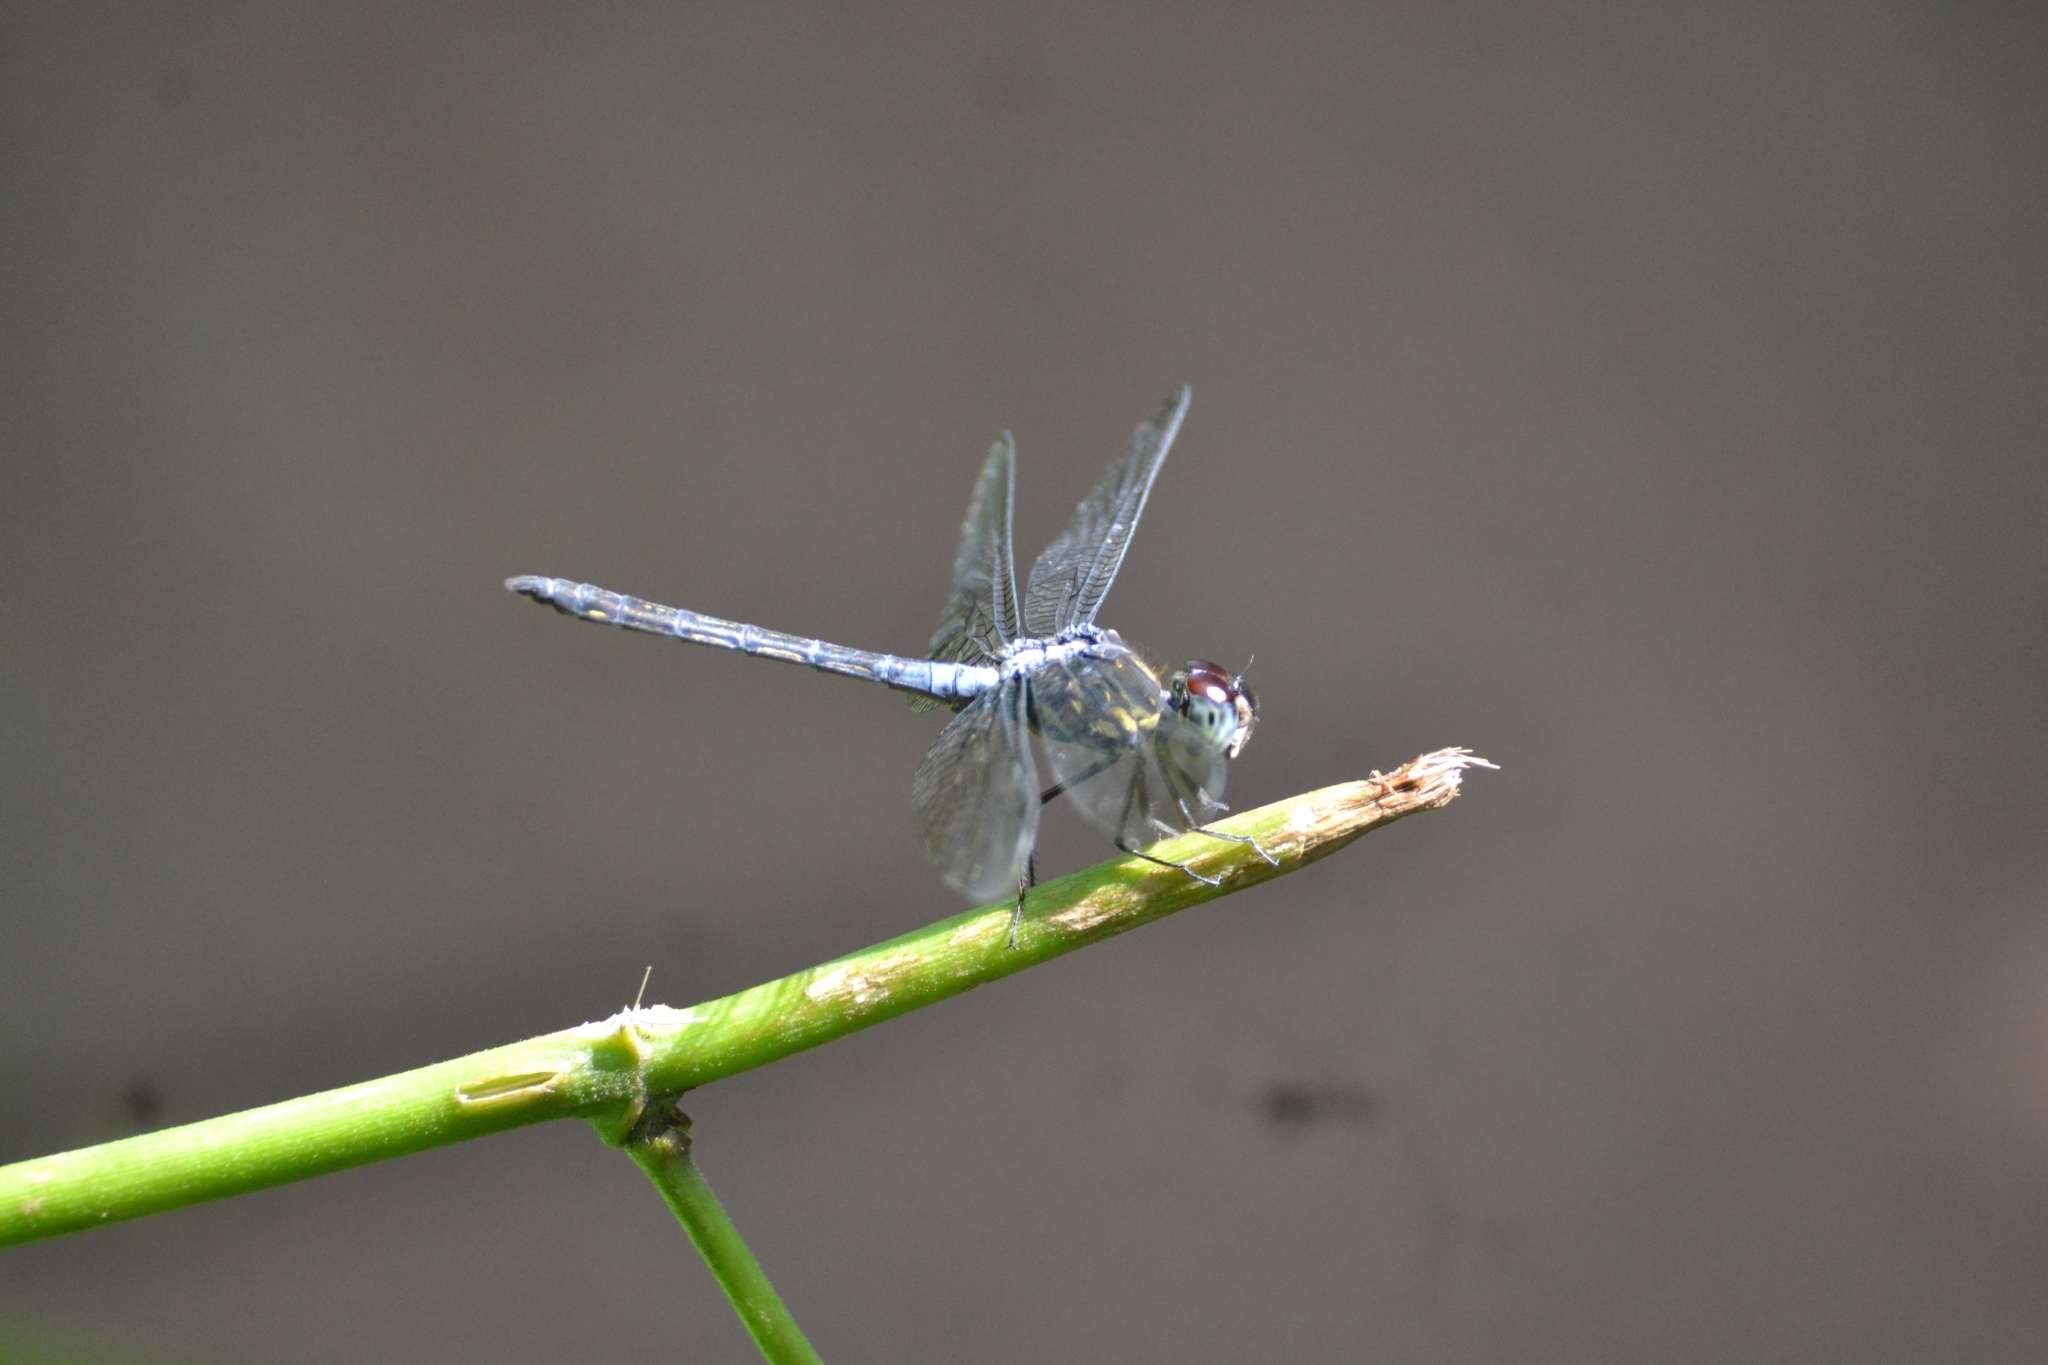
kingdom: Animalia
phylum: Arthropoda
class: Insecta
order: Odonata
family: Libellulidae
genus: Cratilla
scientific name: Cratilla lineata
